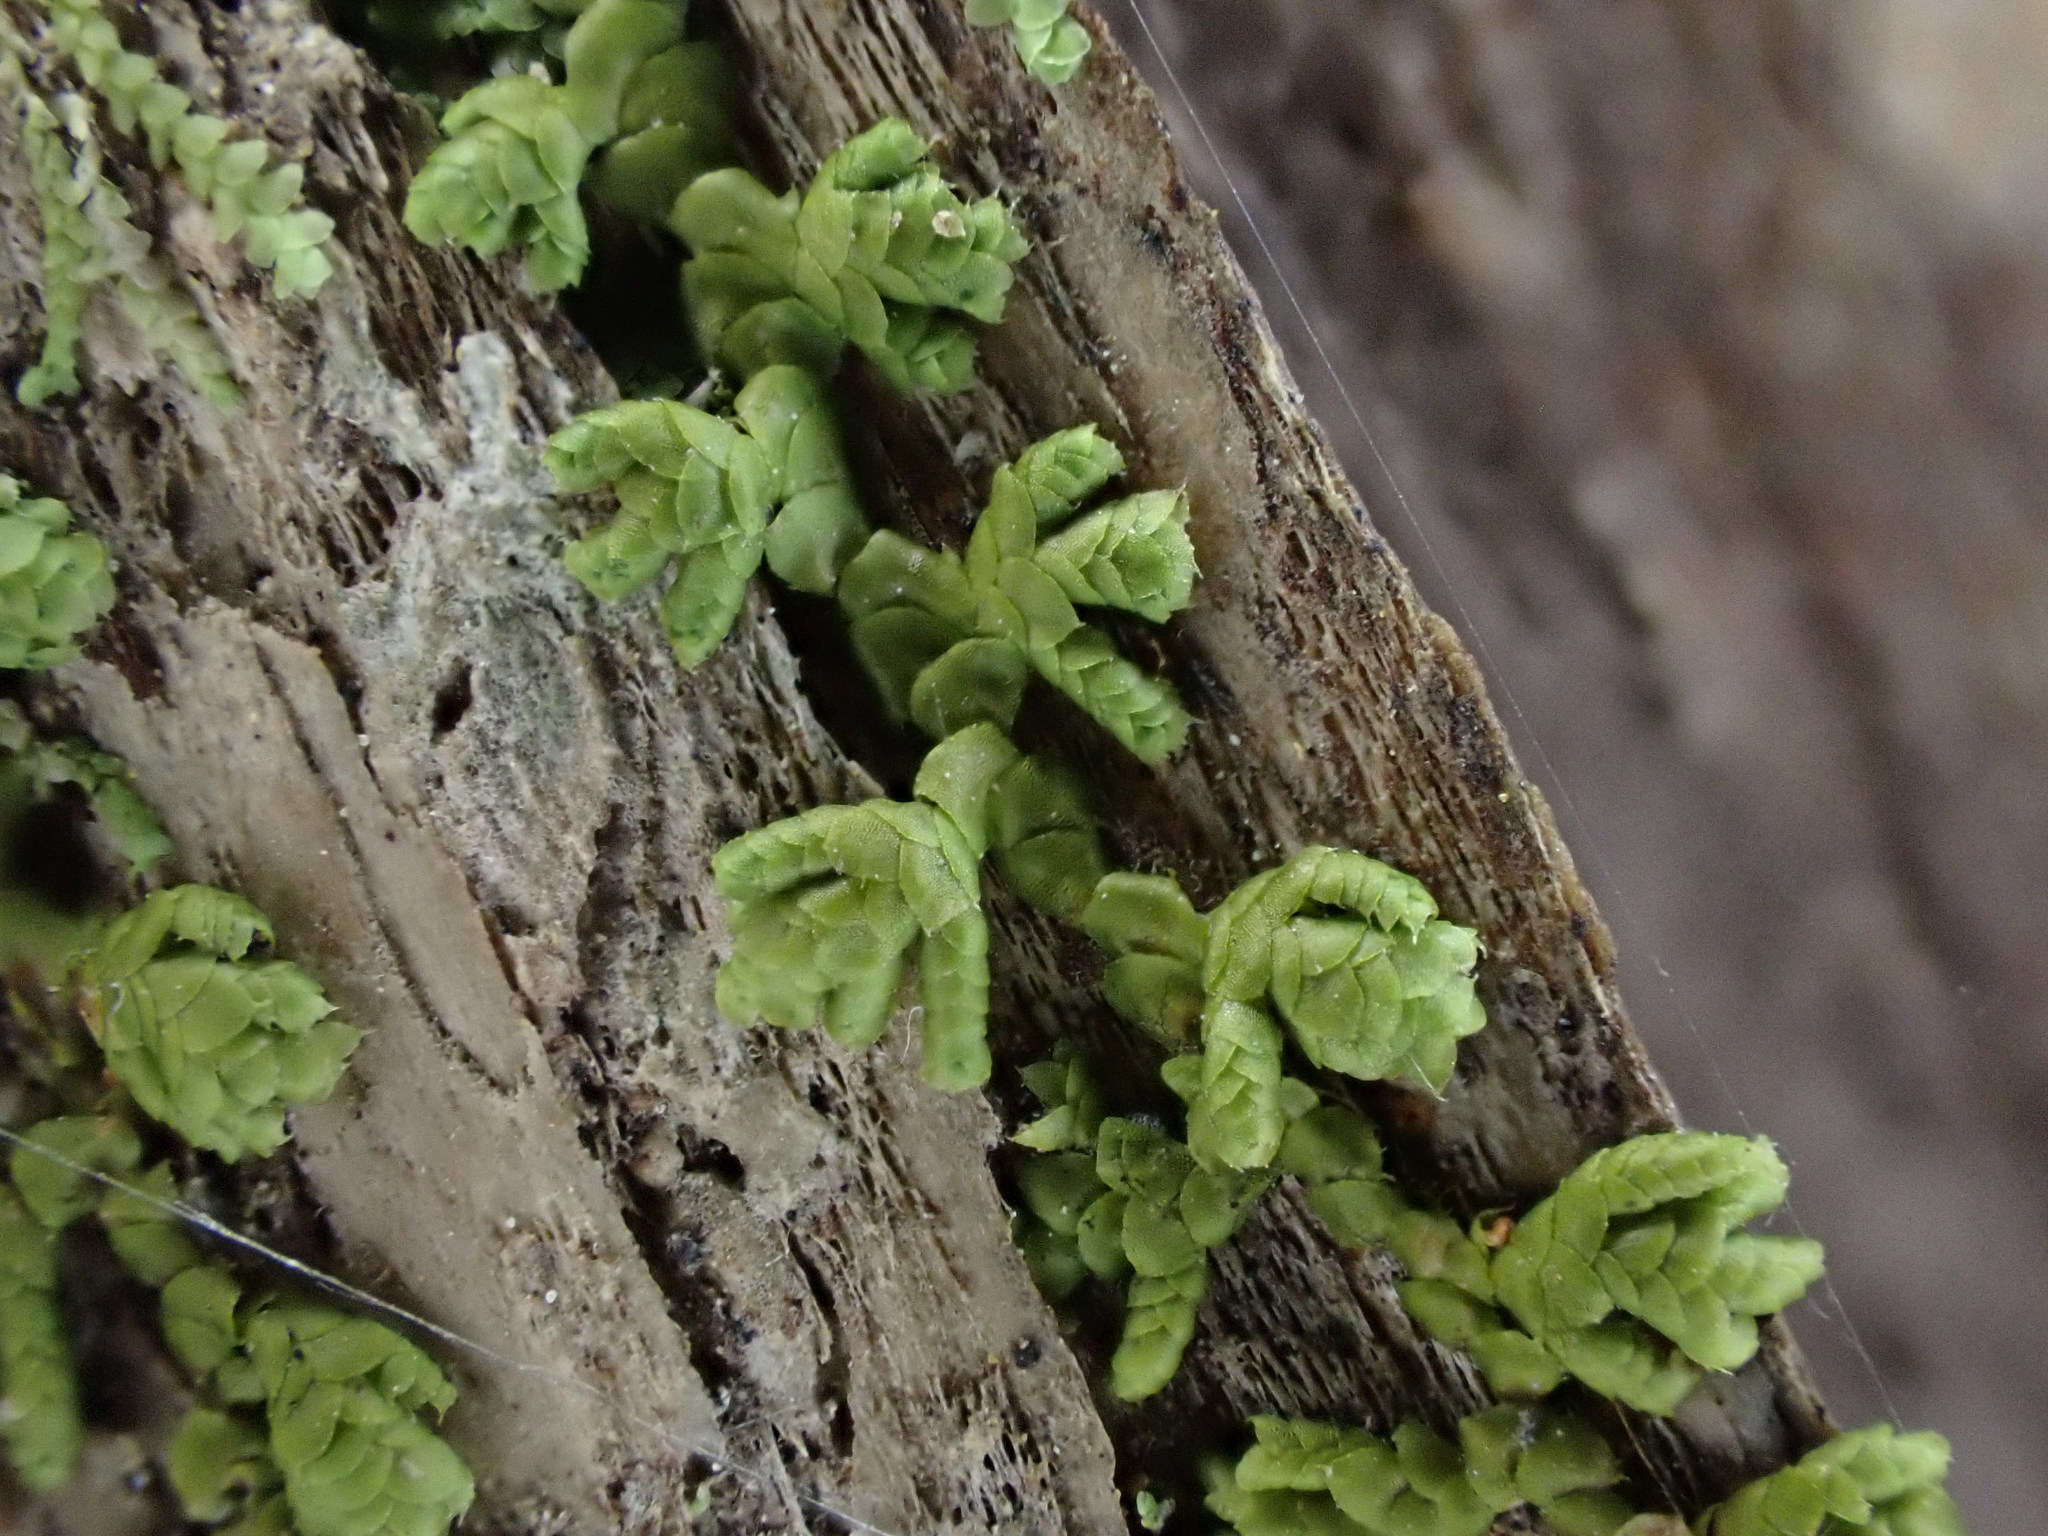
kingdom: Plantae
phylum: Marchantiophyta
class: Jungermanniopsida
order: Porellales
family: Lepidolaenaceae
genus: Lepidolaena
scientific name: Lepidolaena clavigera
